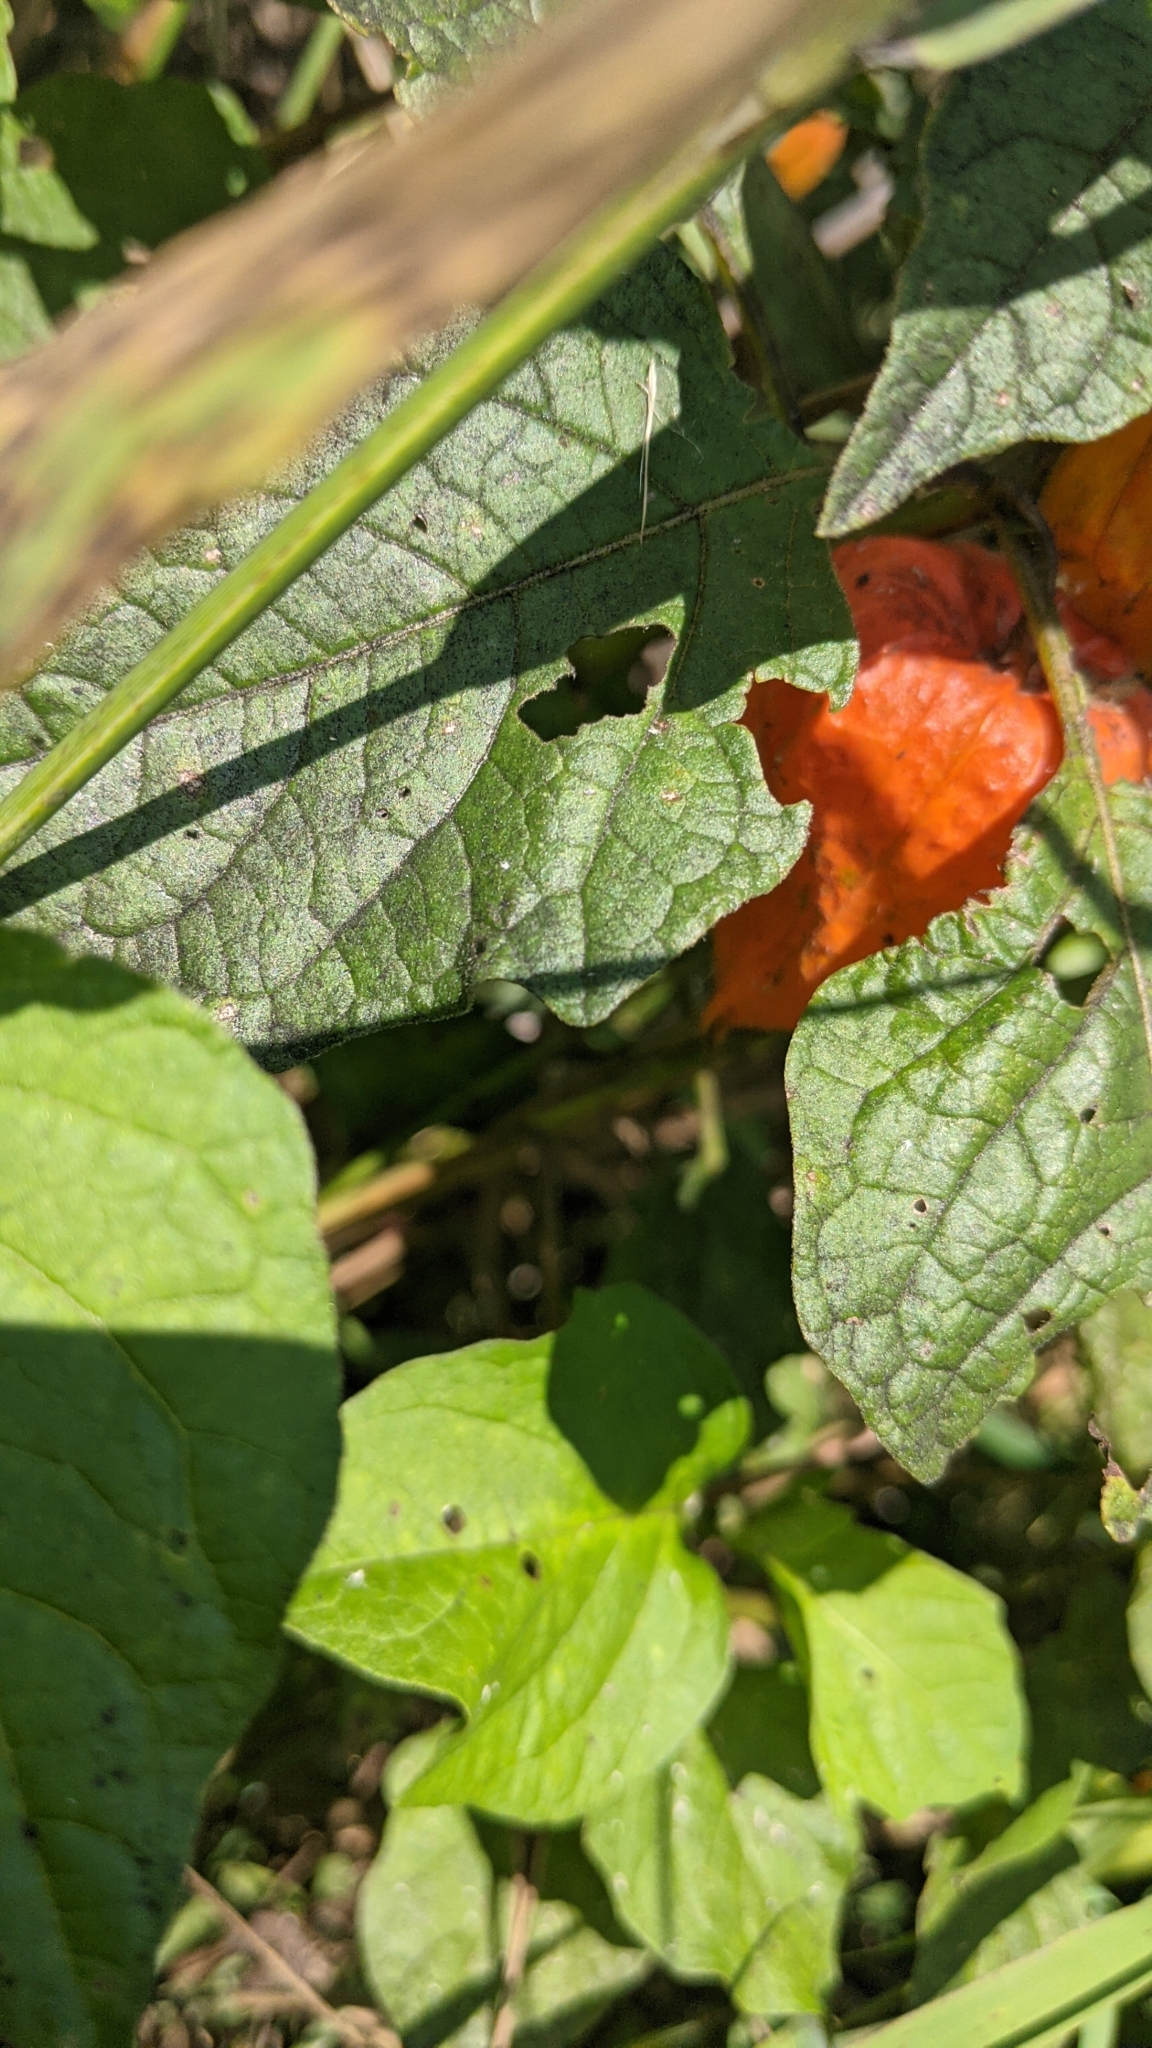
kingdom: Plantae
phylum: Tracheophyta
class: Magnoliopsida
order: Solanales
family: Solanaceae
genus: Alkekengi
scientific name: Alkekengi officinarum
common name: Japanese-lantern
